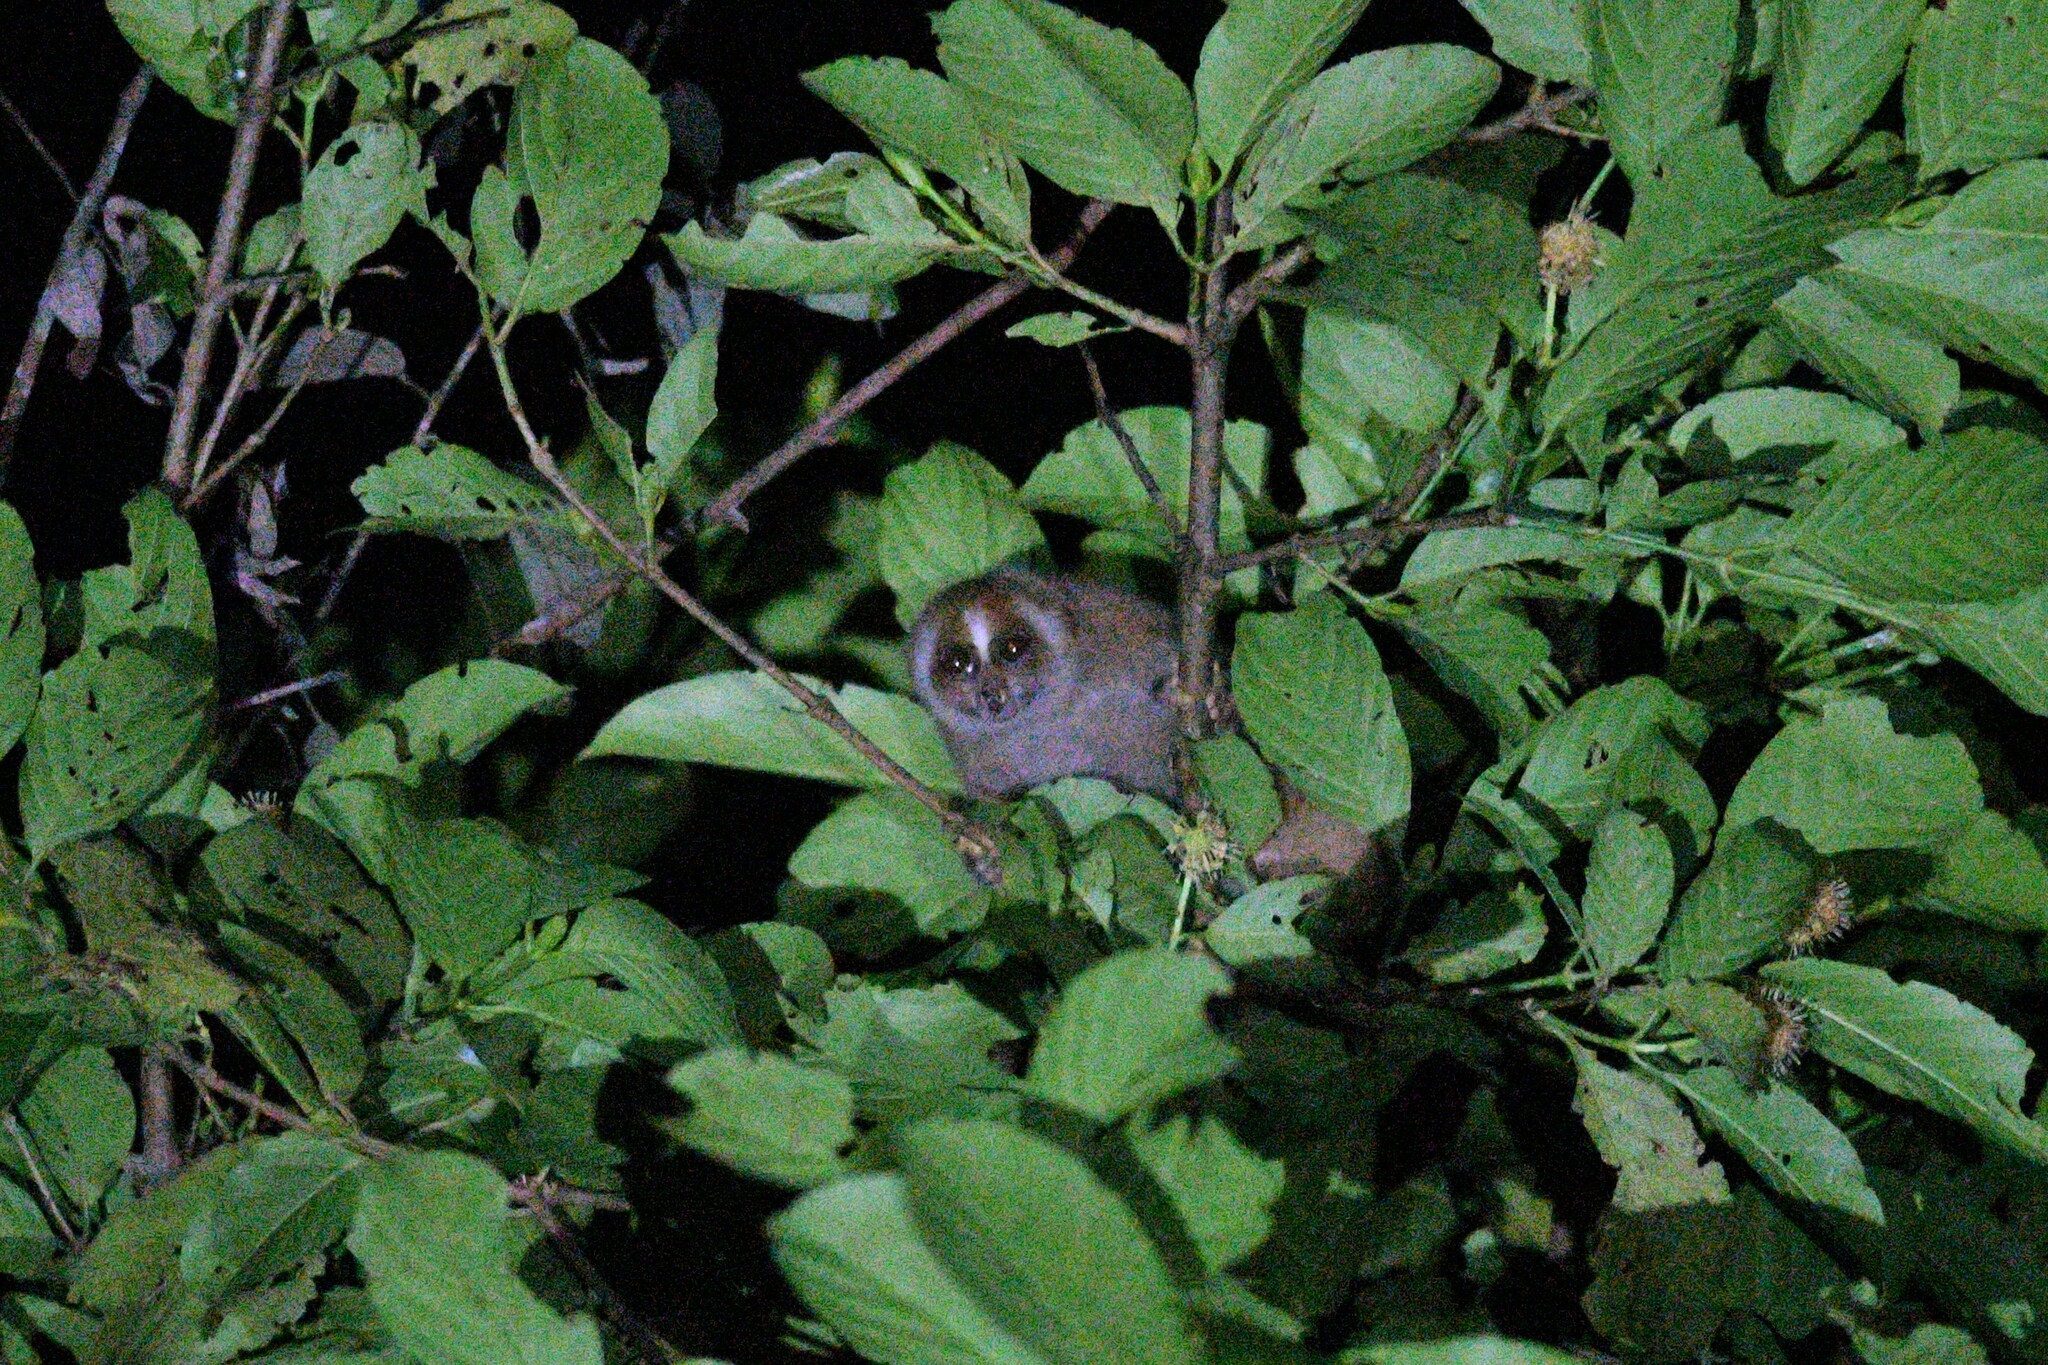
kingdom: Animalia
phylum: Chordata
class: Mammalia
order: Primates
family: Lorisidae
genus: Nycticebus
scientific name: Nycticebus menagensis
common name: Philippine slow loris
